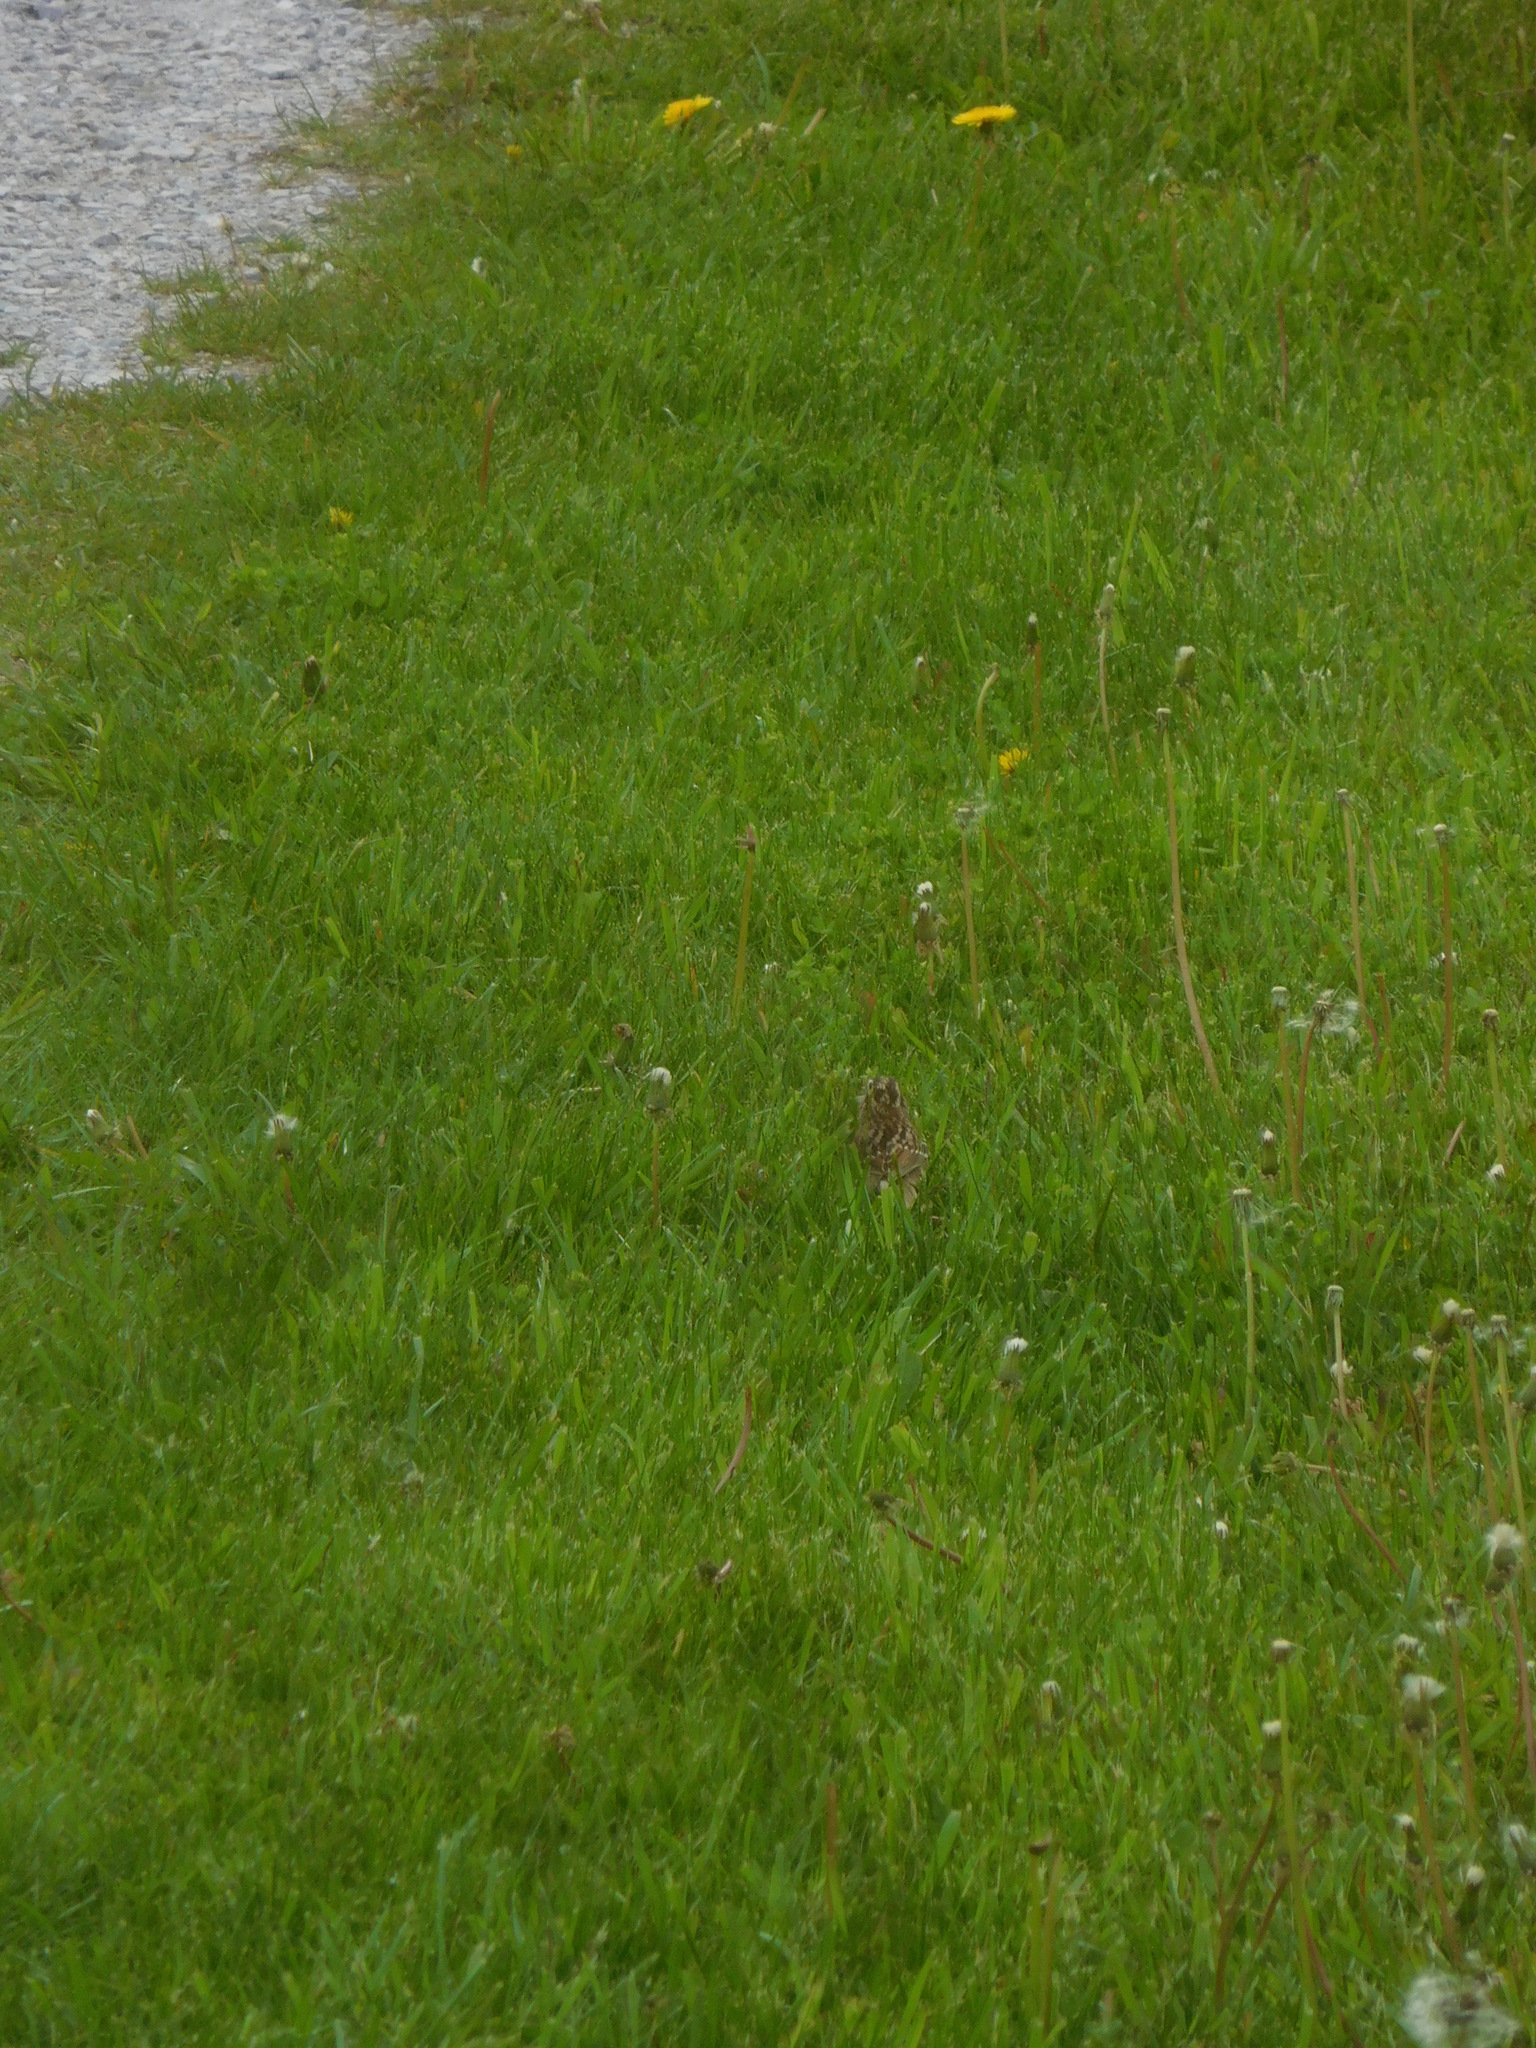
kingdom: Animalia
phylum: Chordata
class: Aves
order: Passeriformes
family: Passerellidae
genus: Zonotrichia
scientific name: Zonotrichia albicollis
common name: White-throated sparrow
